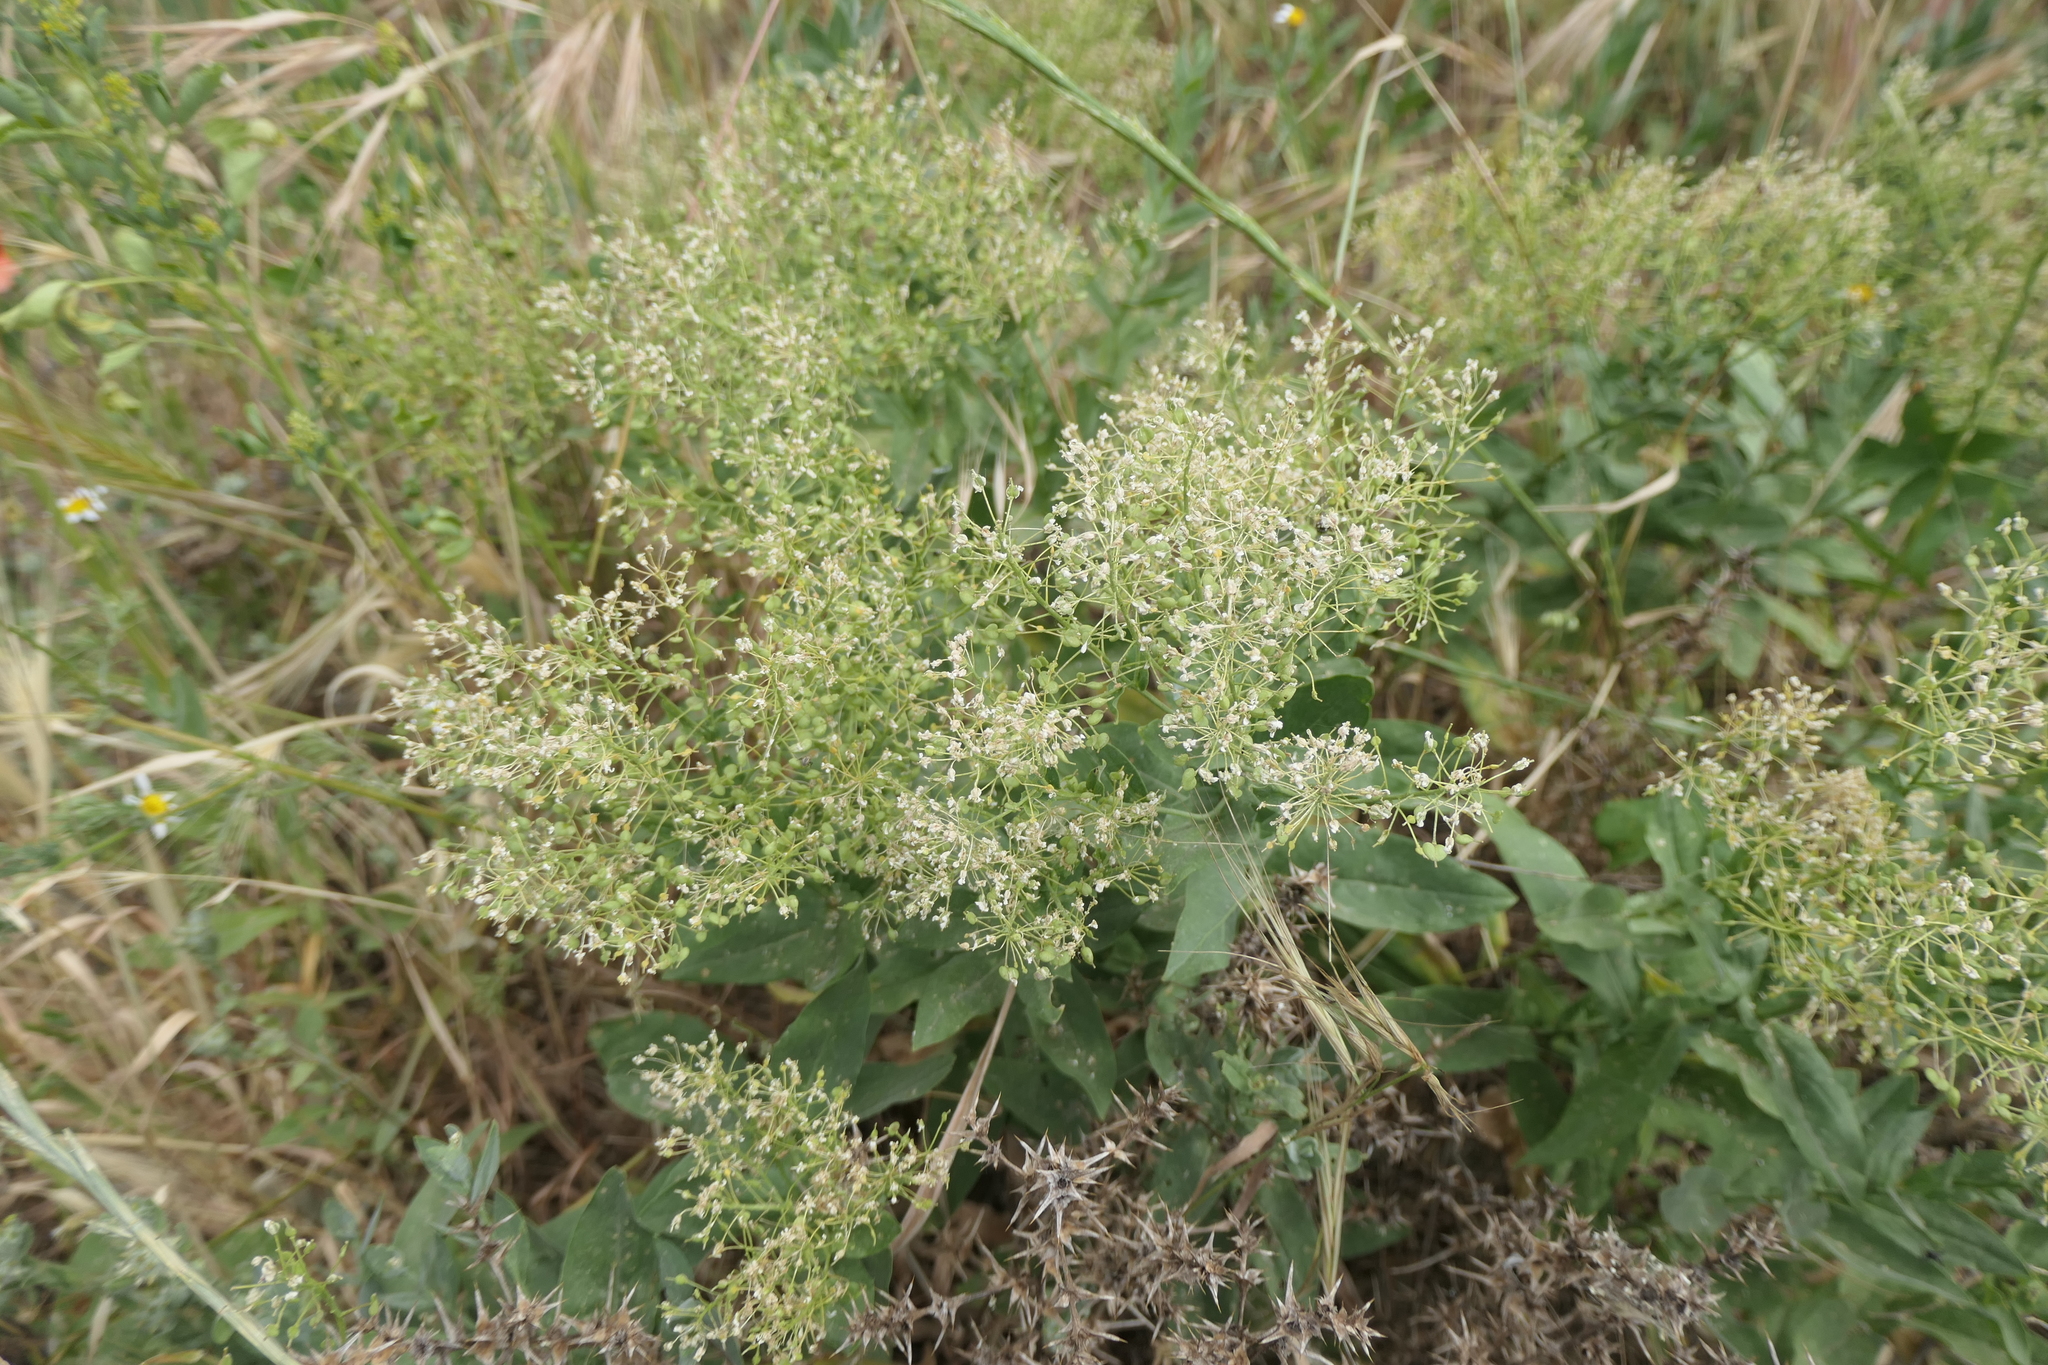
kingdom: Plantae
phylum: Tracheophyta
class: Magnoliopsida
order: Brassicales
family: Brassicaceae
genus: Lepidium
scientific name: Lepidium draba
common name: Hoary cress
